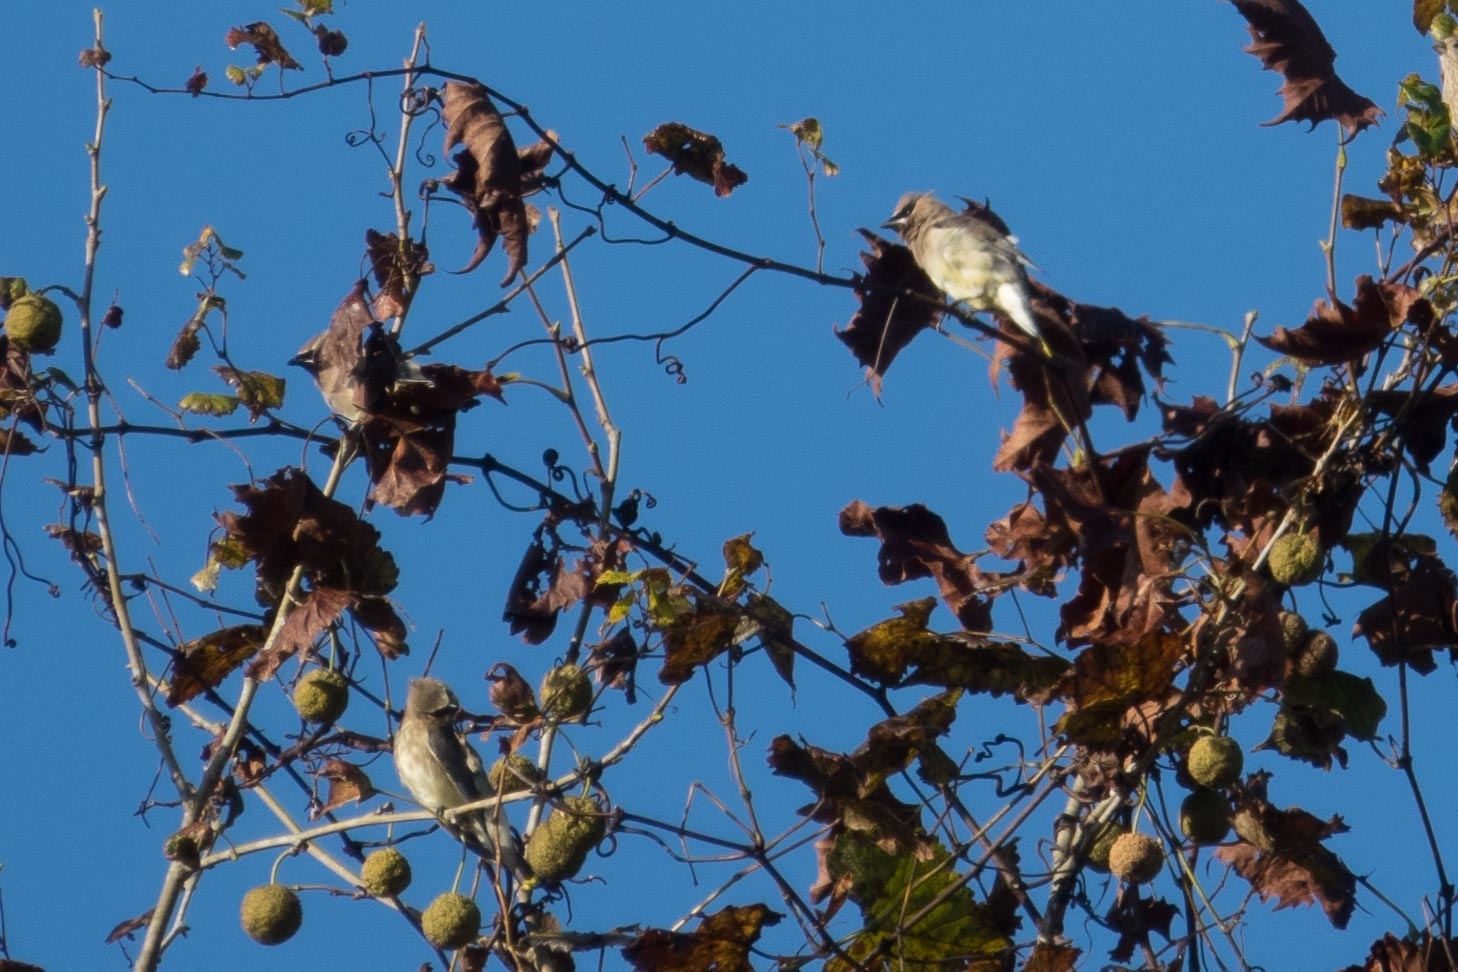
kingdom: Animalia
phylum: Chordata
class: Aves
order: Passeriformes
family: Bombycillidae
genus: Bombycilla
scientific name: Bombycilla cedrorum
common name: Cedar waxwing
